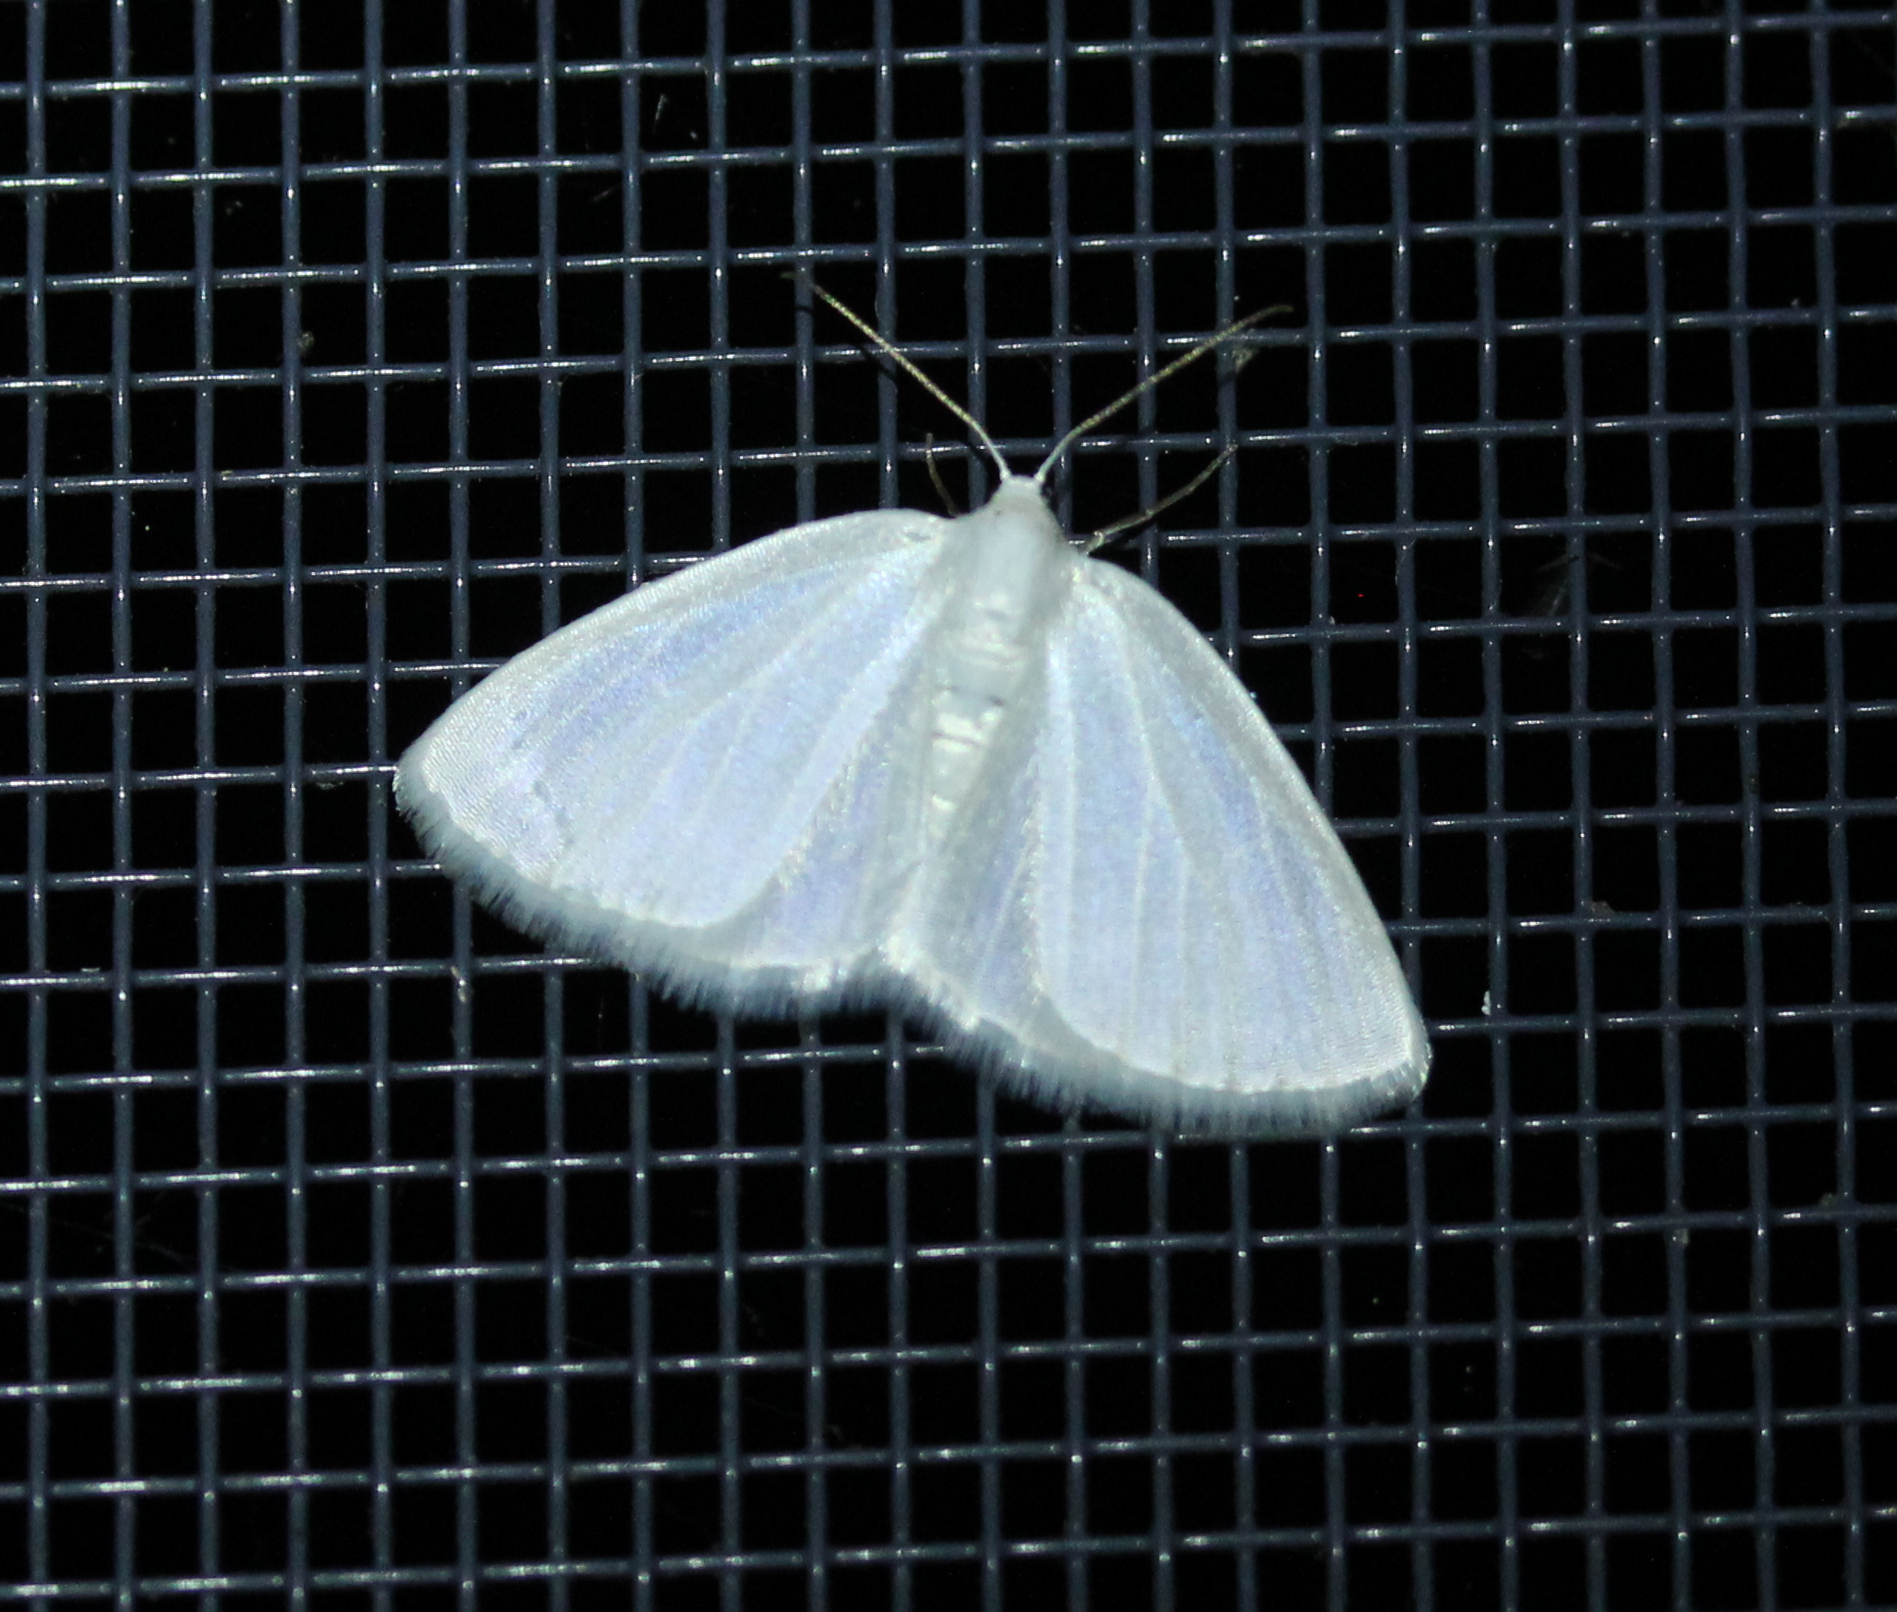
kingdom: Animalia
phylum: Arthropoda
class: Insecta
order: Lepidoptera
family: Geometridae
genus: Lomographa
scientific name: Lomographa vestaliata
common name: White spring moth
